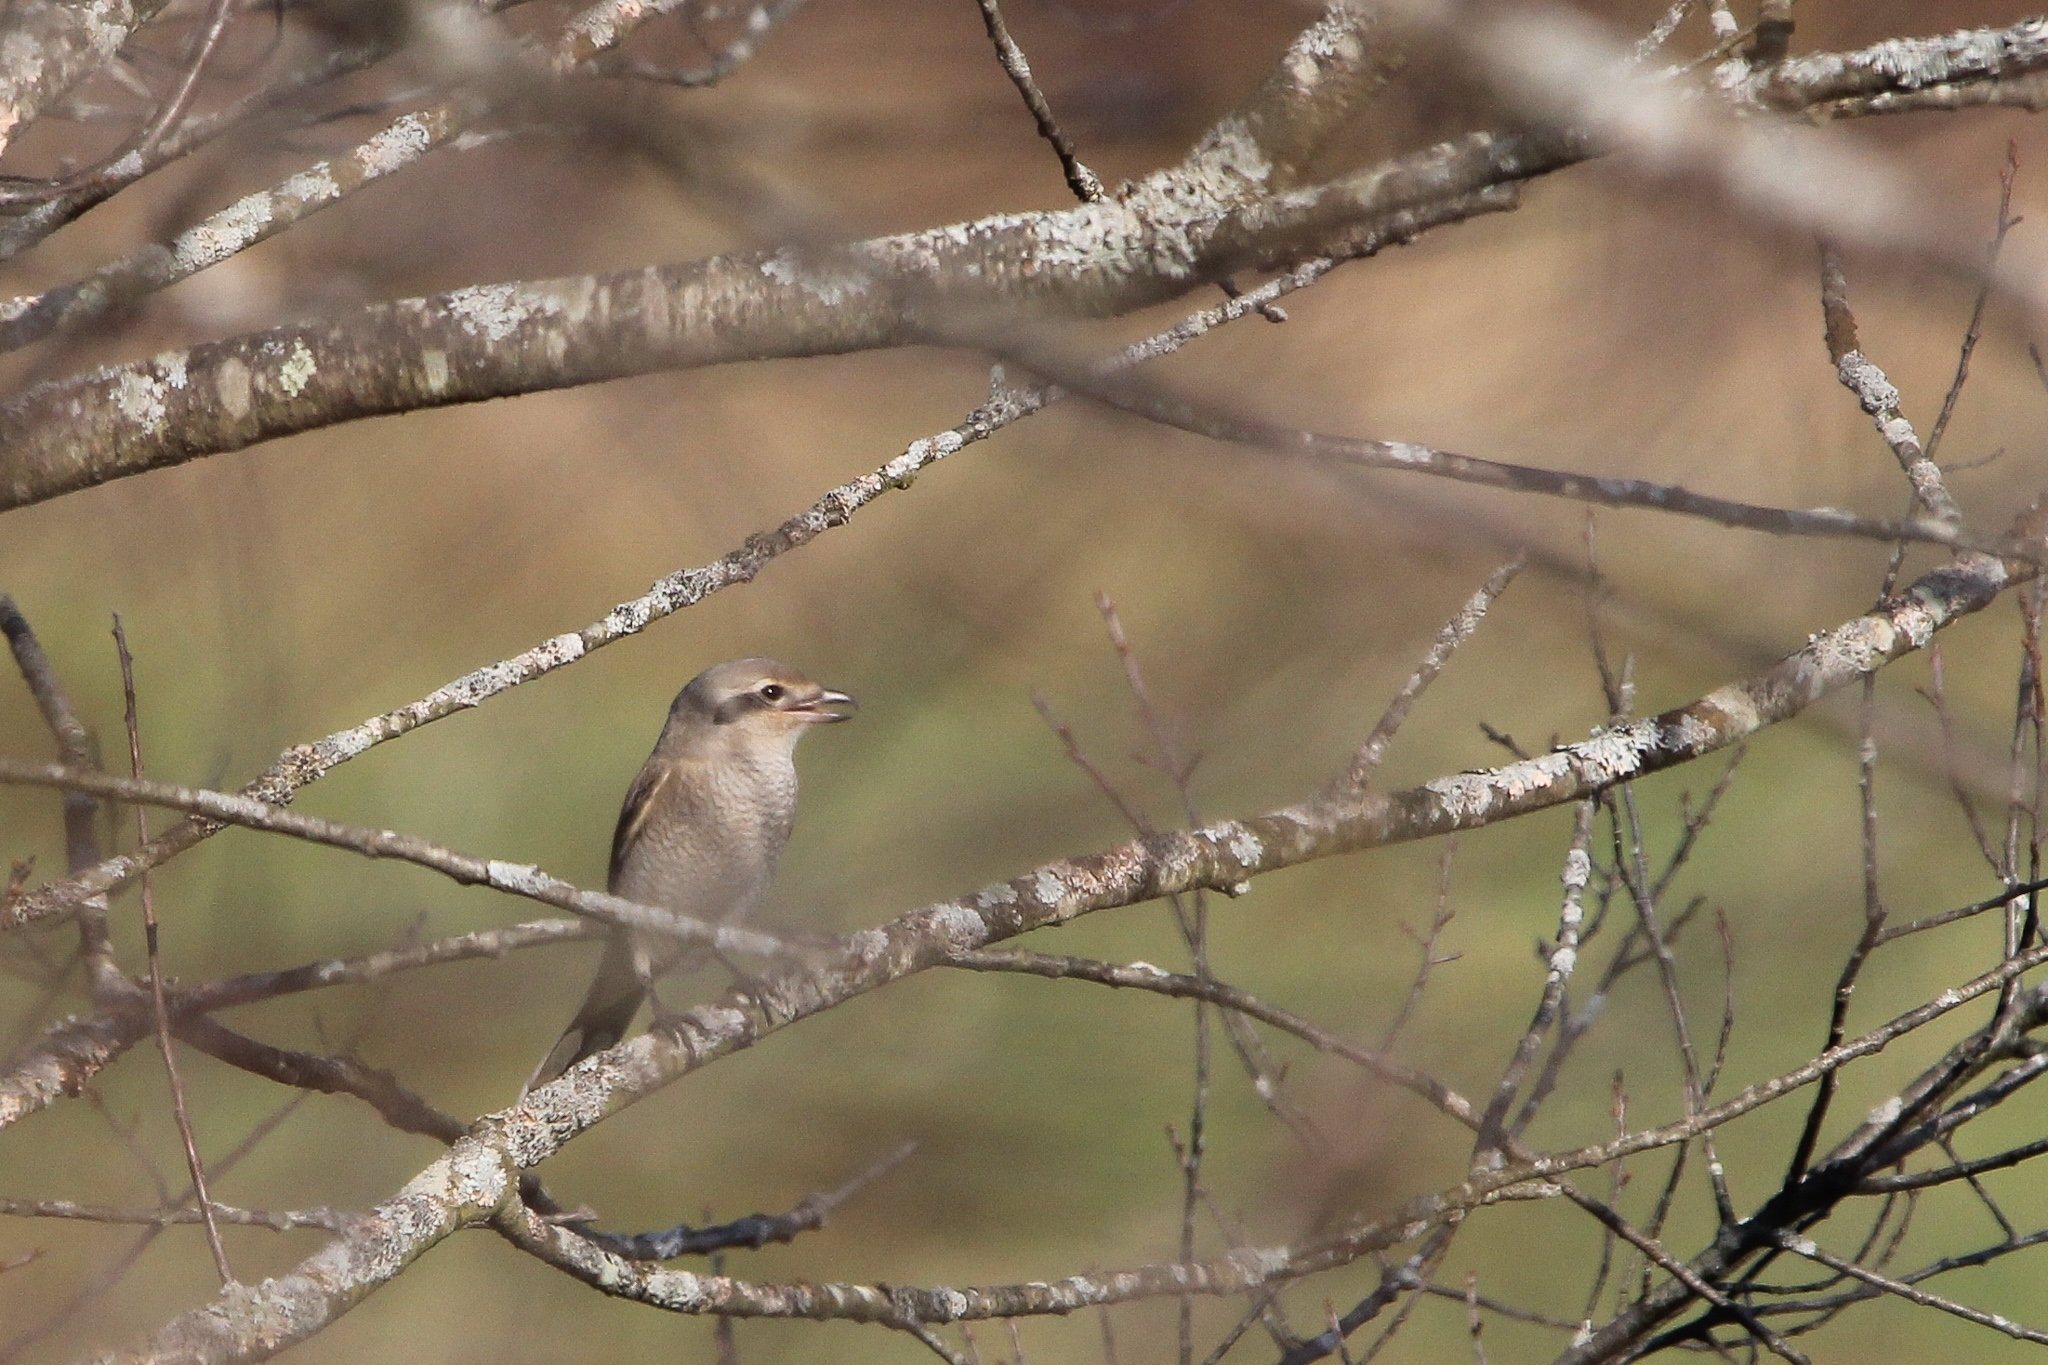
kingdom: Animalia
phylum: Chordata
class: Aves
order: Passeriformes
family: Laniidae
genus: Lanius
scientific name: Lanius borealis
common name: Northern shrike
